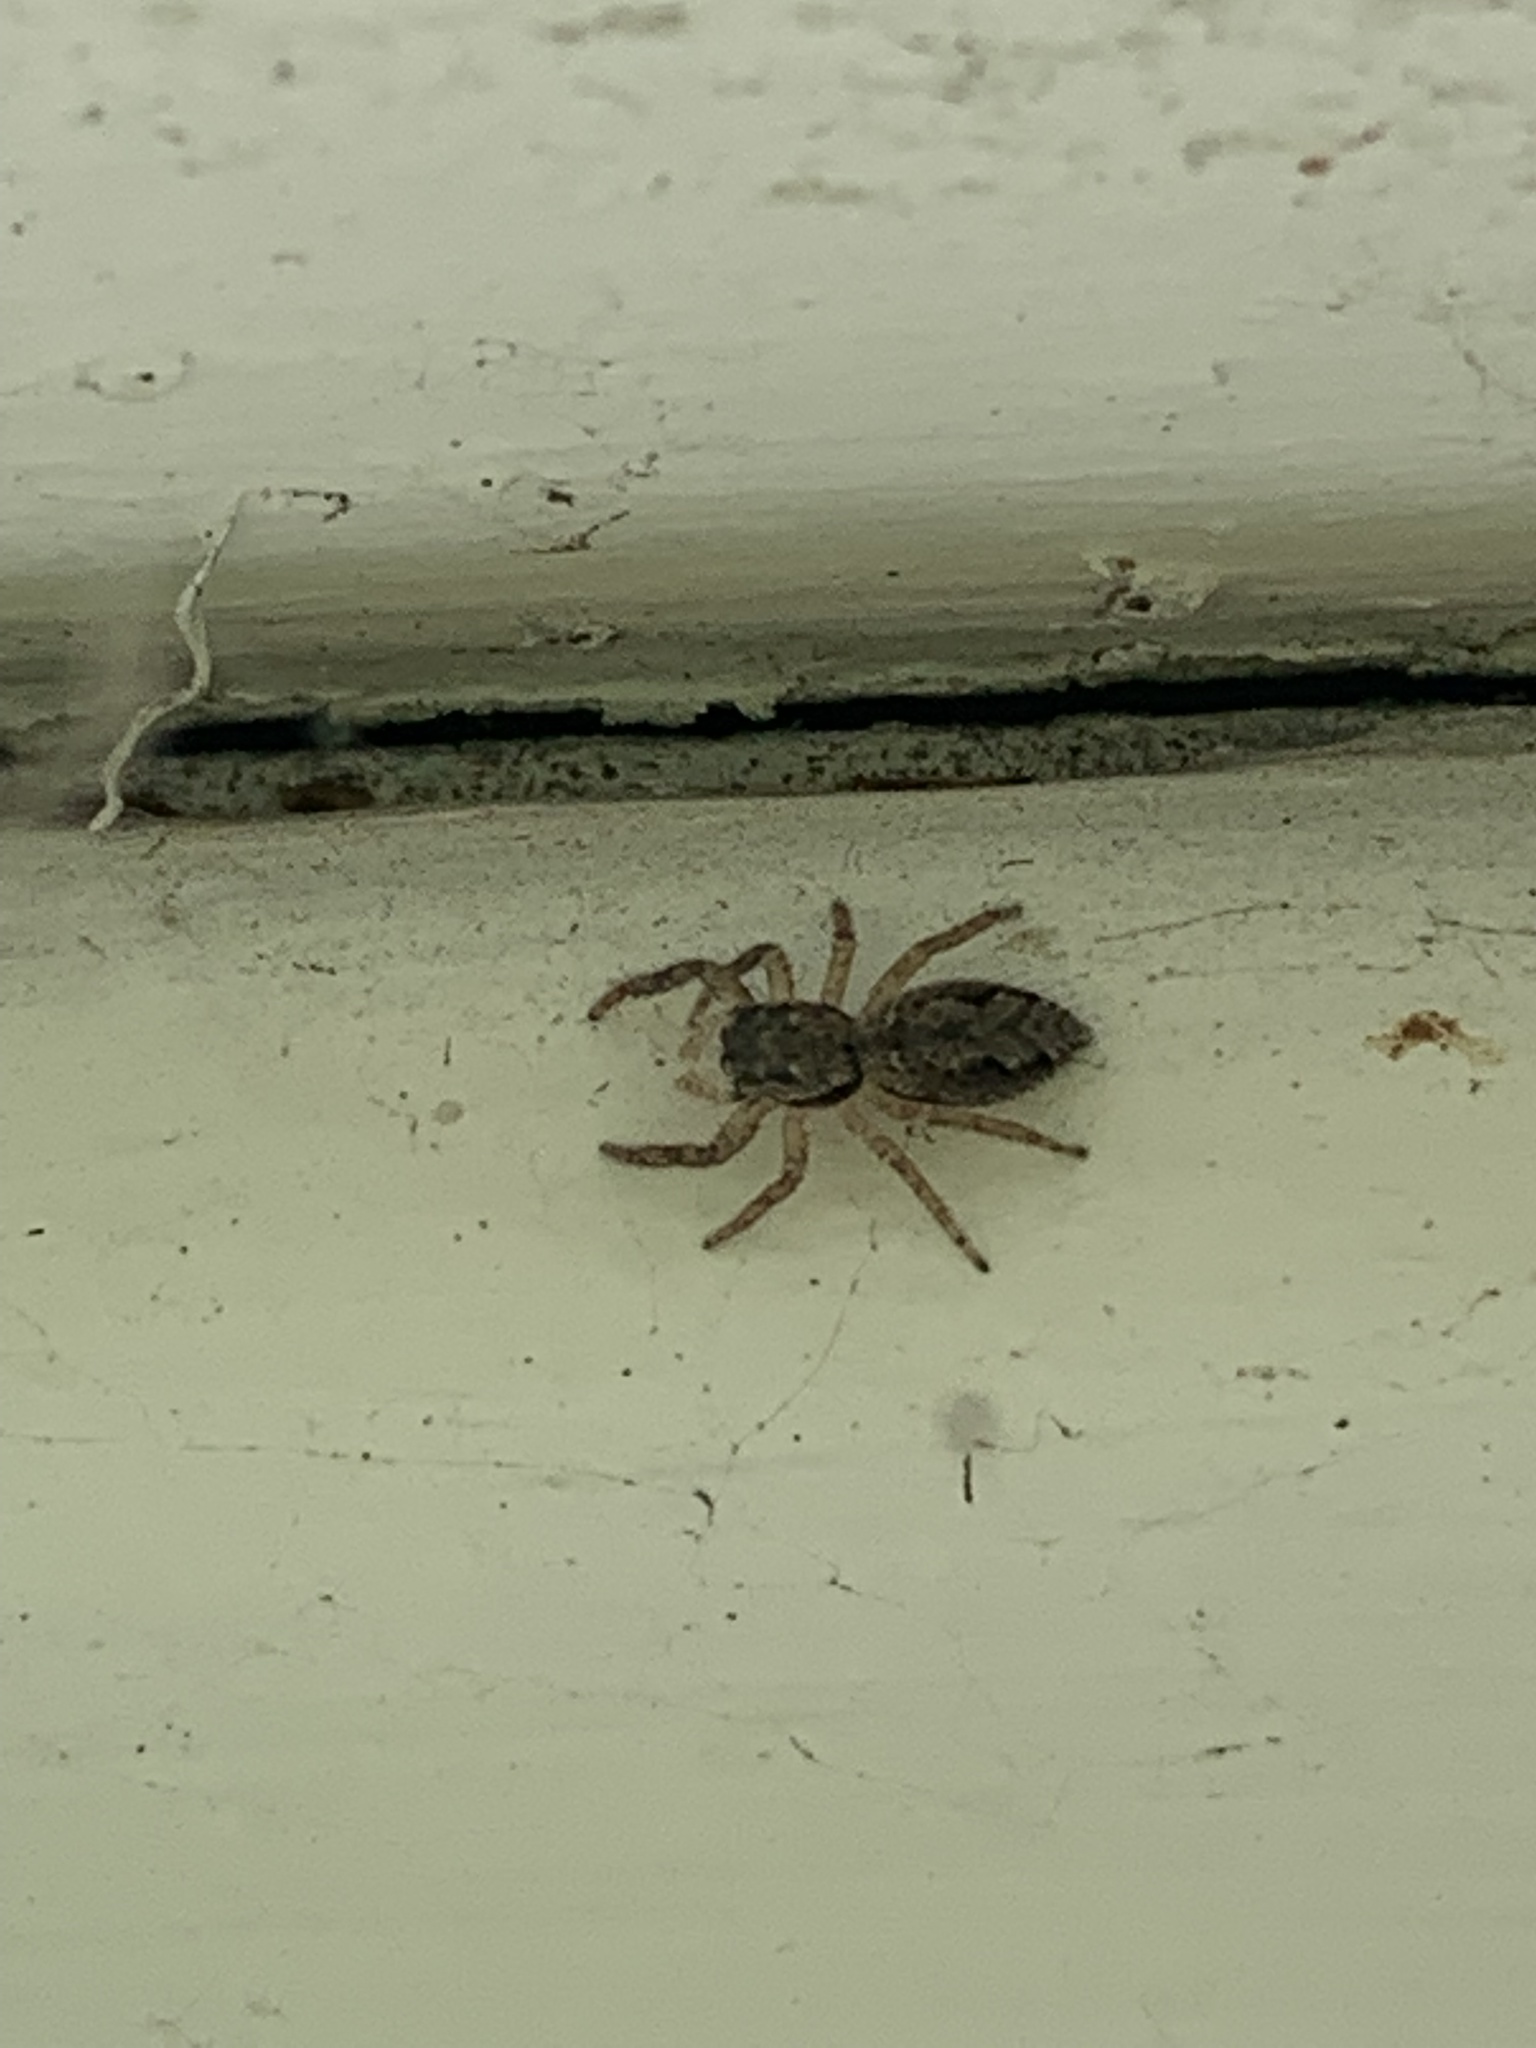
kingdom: Animalia
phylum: Arthropoda
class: Arachnida
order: Araneae
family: Salticidae
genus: Platycryptus
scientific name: Platycryptus undatus
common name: Tan jumping spider
